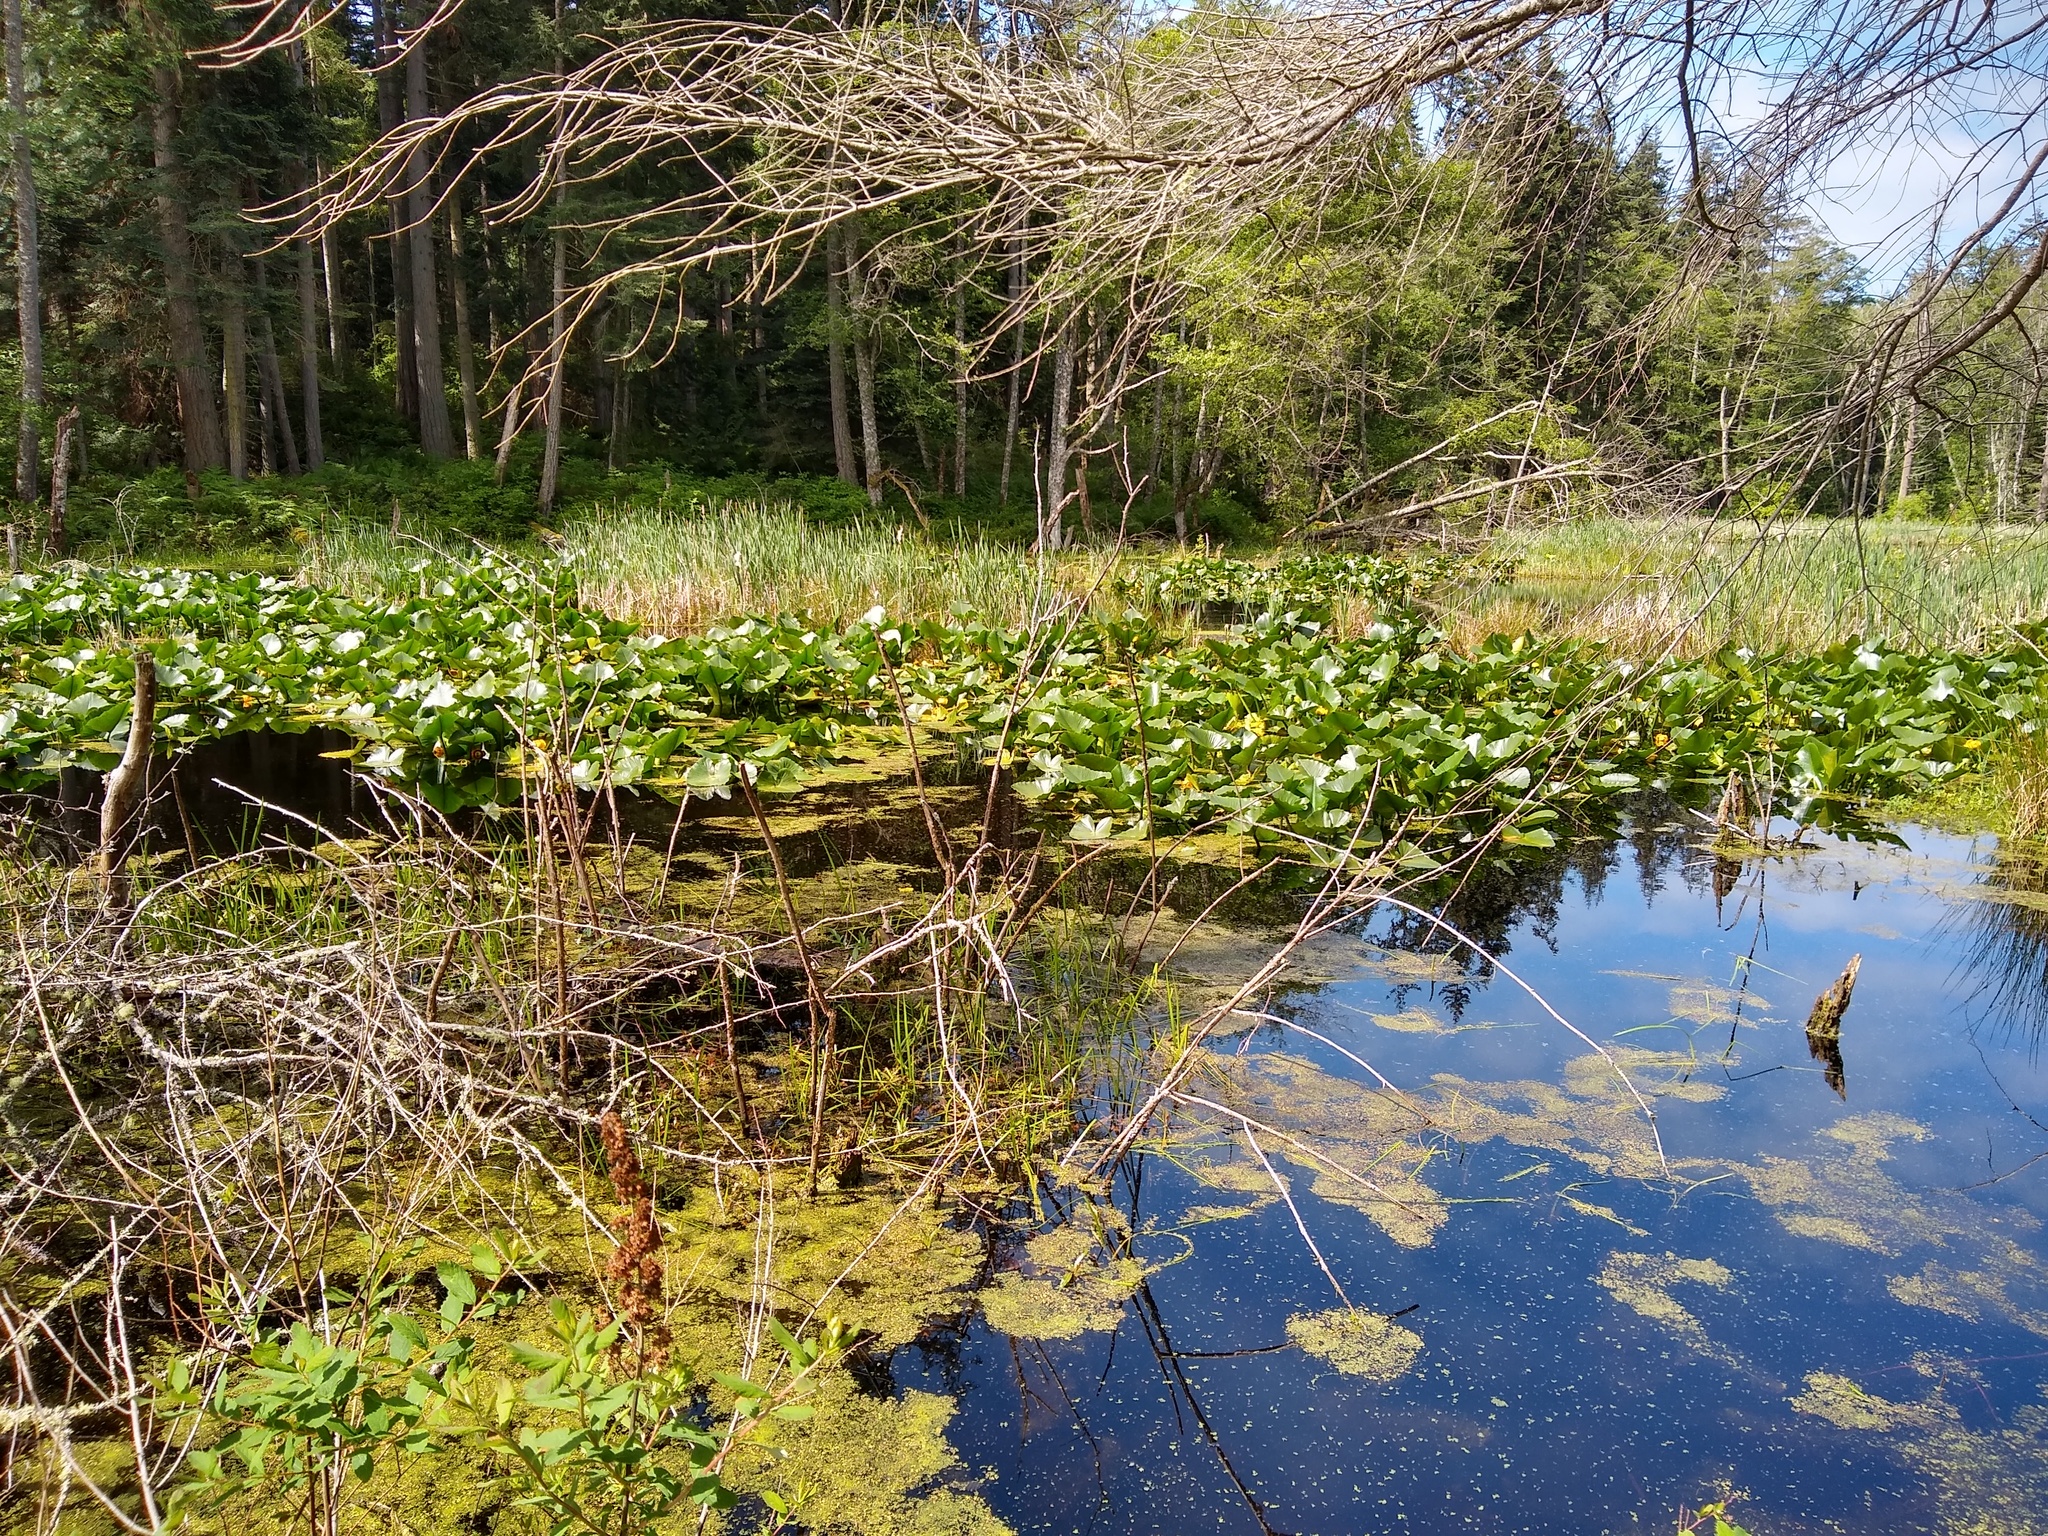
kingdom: Plantae
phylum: Tracheophyta
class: Magnoliopsida
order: Nymphaeales
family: Nymphaeaceae
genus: Nuphar
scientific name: Nuphar polysepala
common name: Rocky mountain cow-lily
